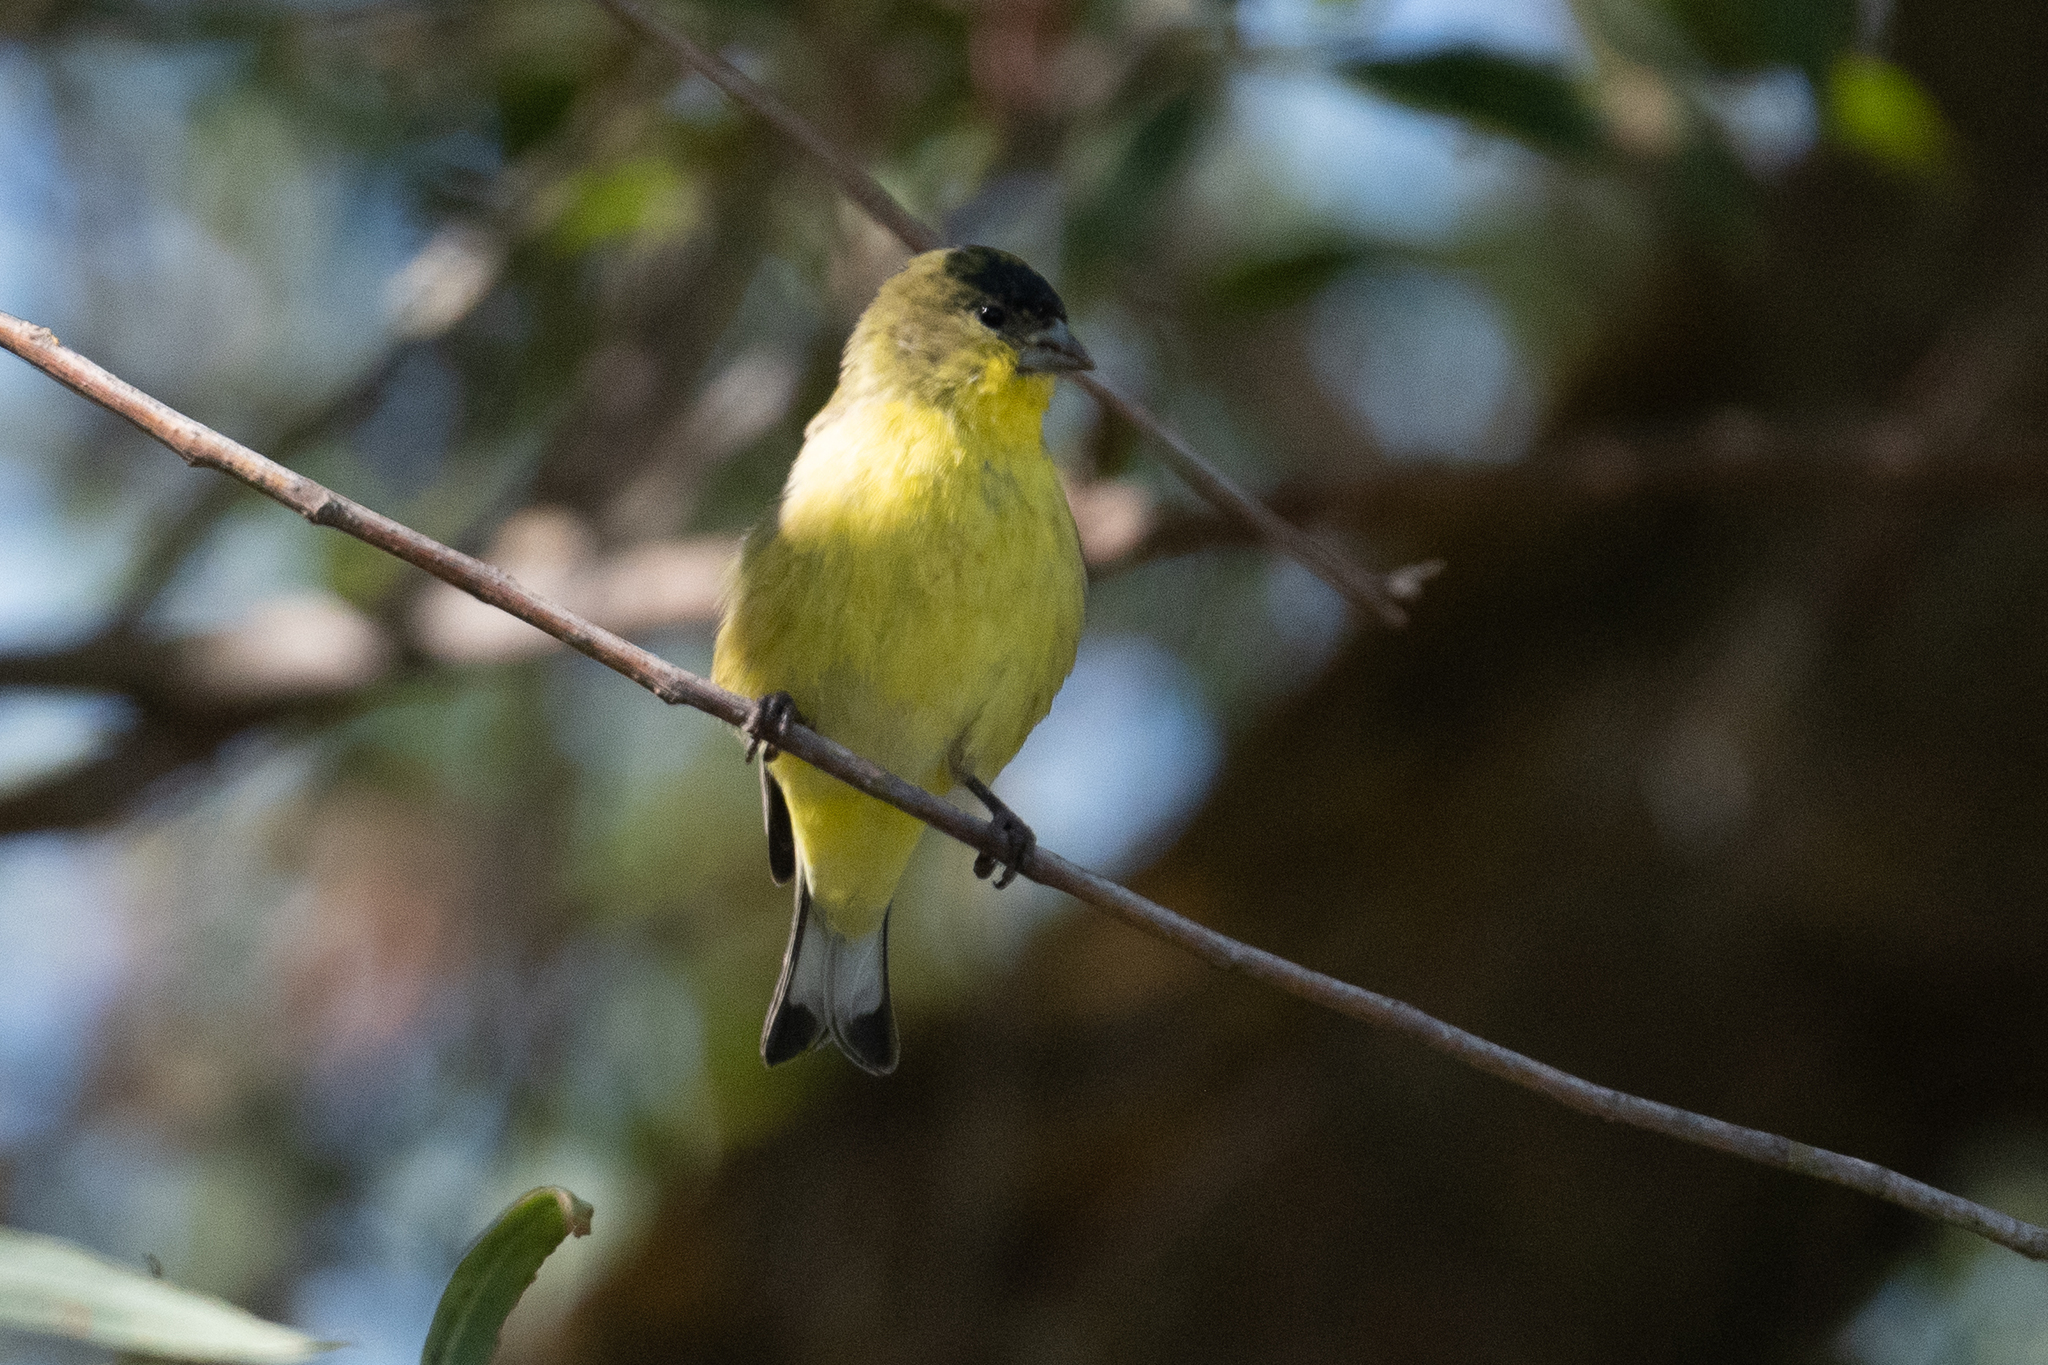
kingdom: Animalia
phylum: Chordata
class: Aves
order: Passeriformes
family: Fringillidae
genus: Spinus
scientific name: Spinus psaltria
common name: Lesser goldfinch
